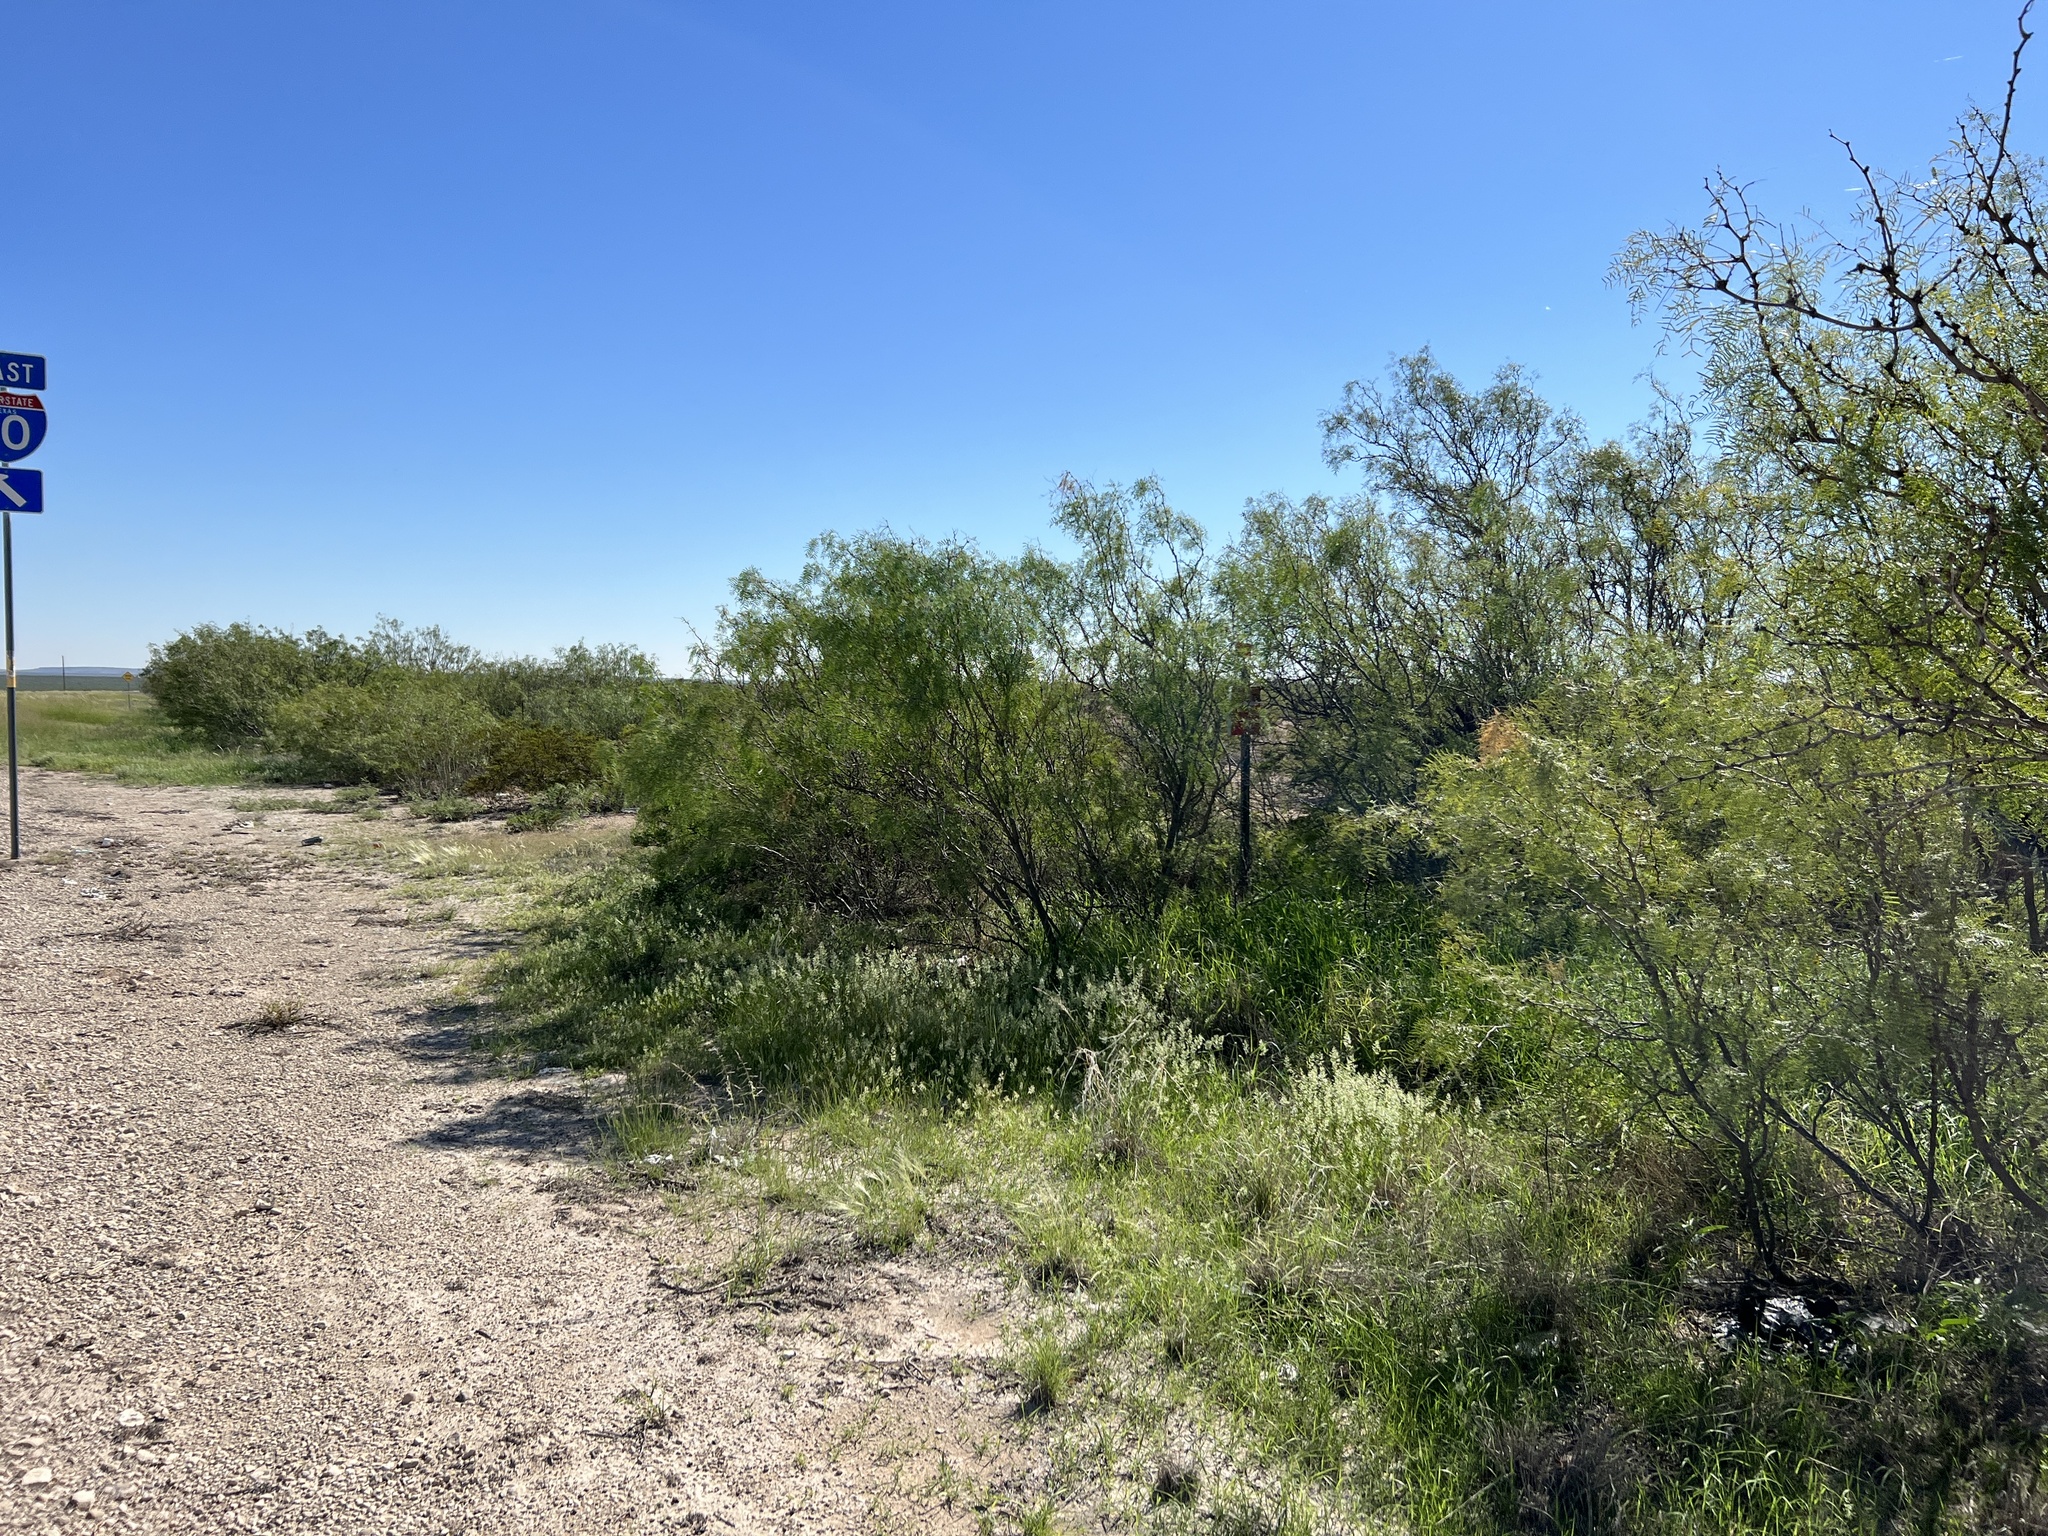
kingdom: Plantae
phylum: Tracheophyta
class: Magnoliopsida
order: Fabales
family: Fabaceae
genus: Prosopis
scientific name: Prosopis glandulosa
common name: Honey mesquite
